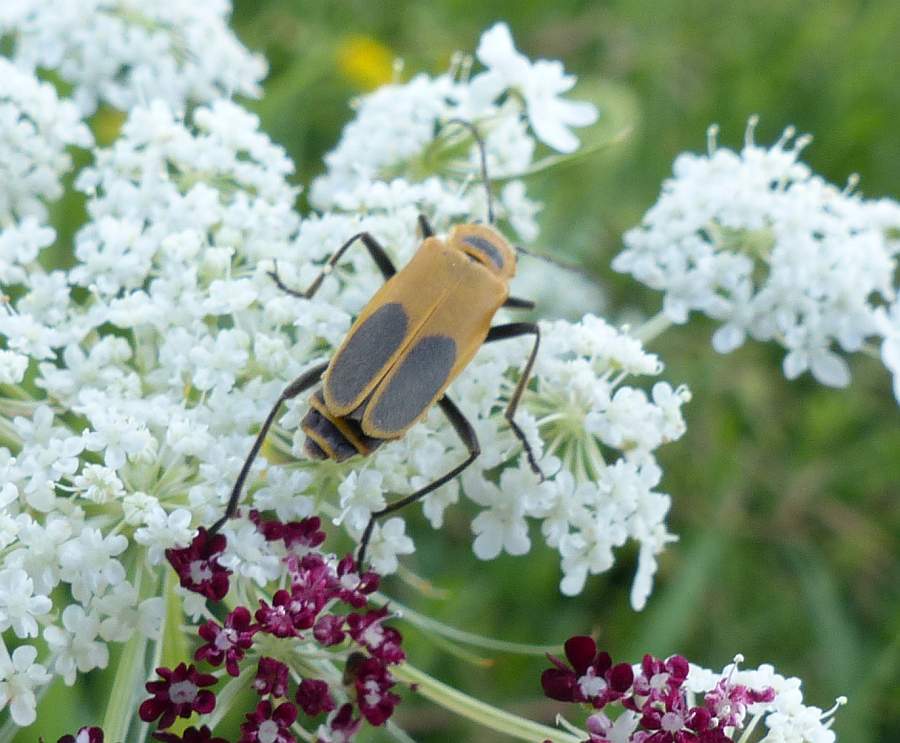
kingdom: Animalia
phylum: Arthropoda
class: Insecta
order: Coleoptera
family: Cantharidae
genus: Chauliognathus
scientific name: Chauliognathus pensylvanicus
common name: Goldenrod soldier beetle
